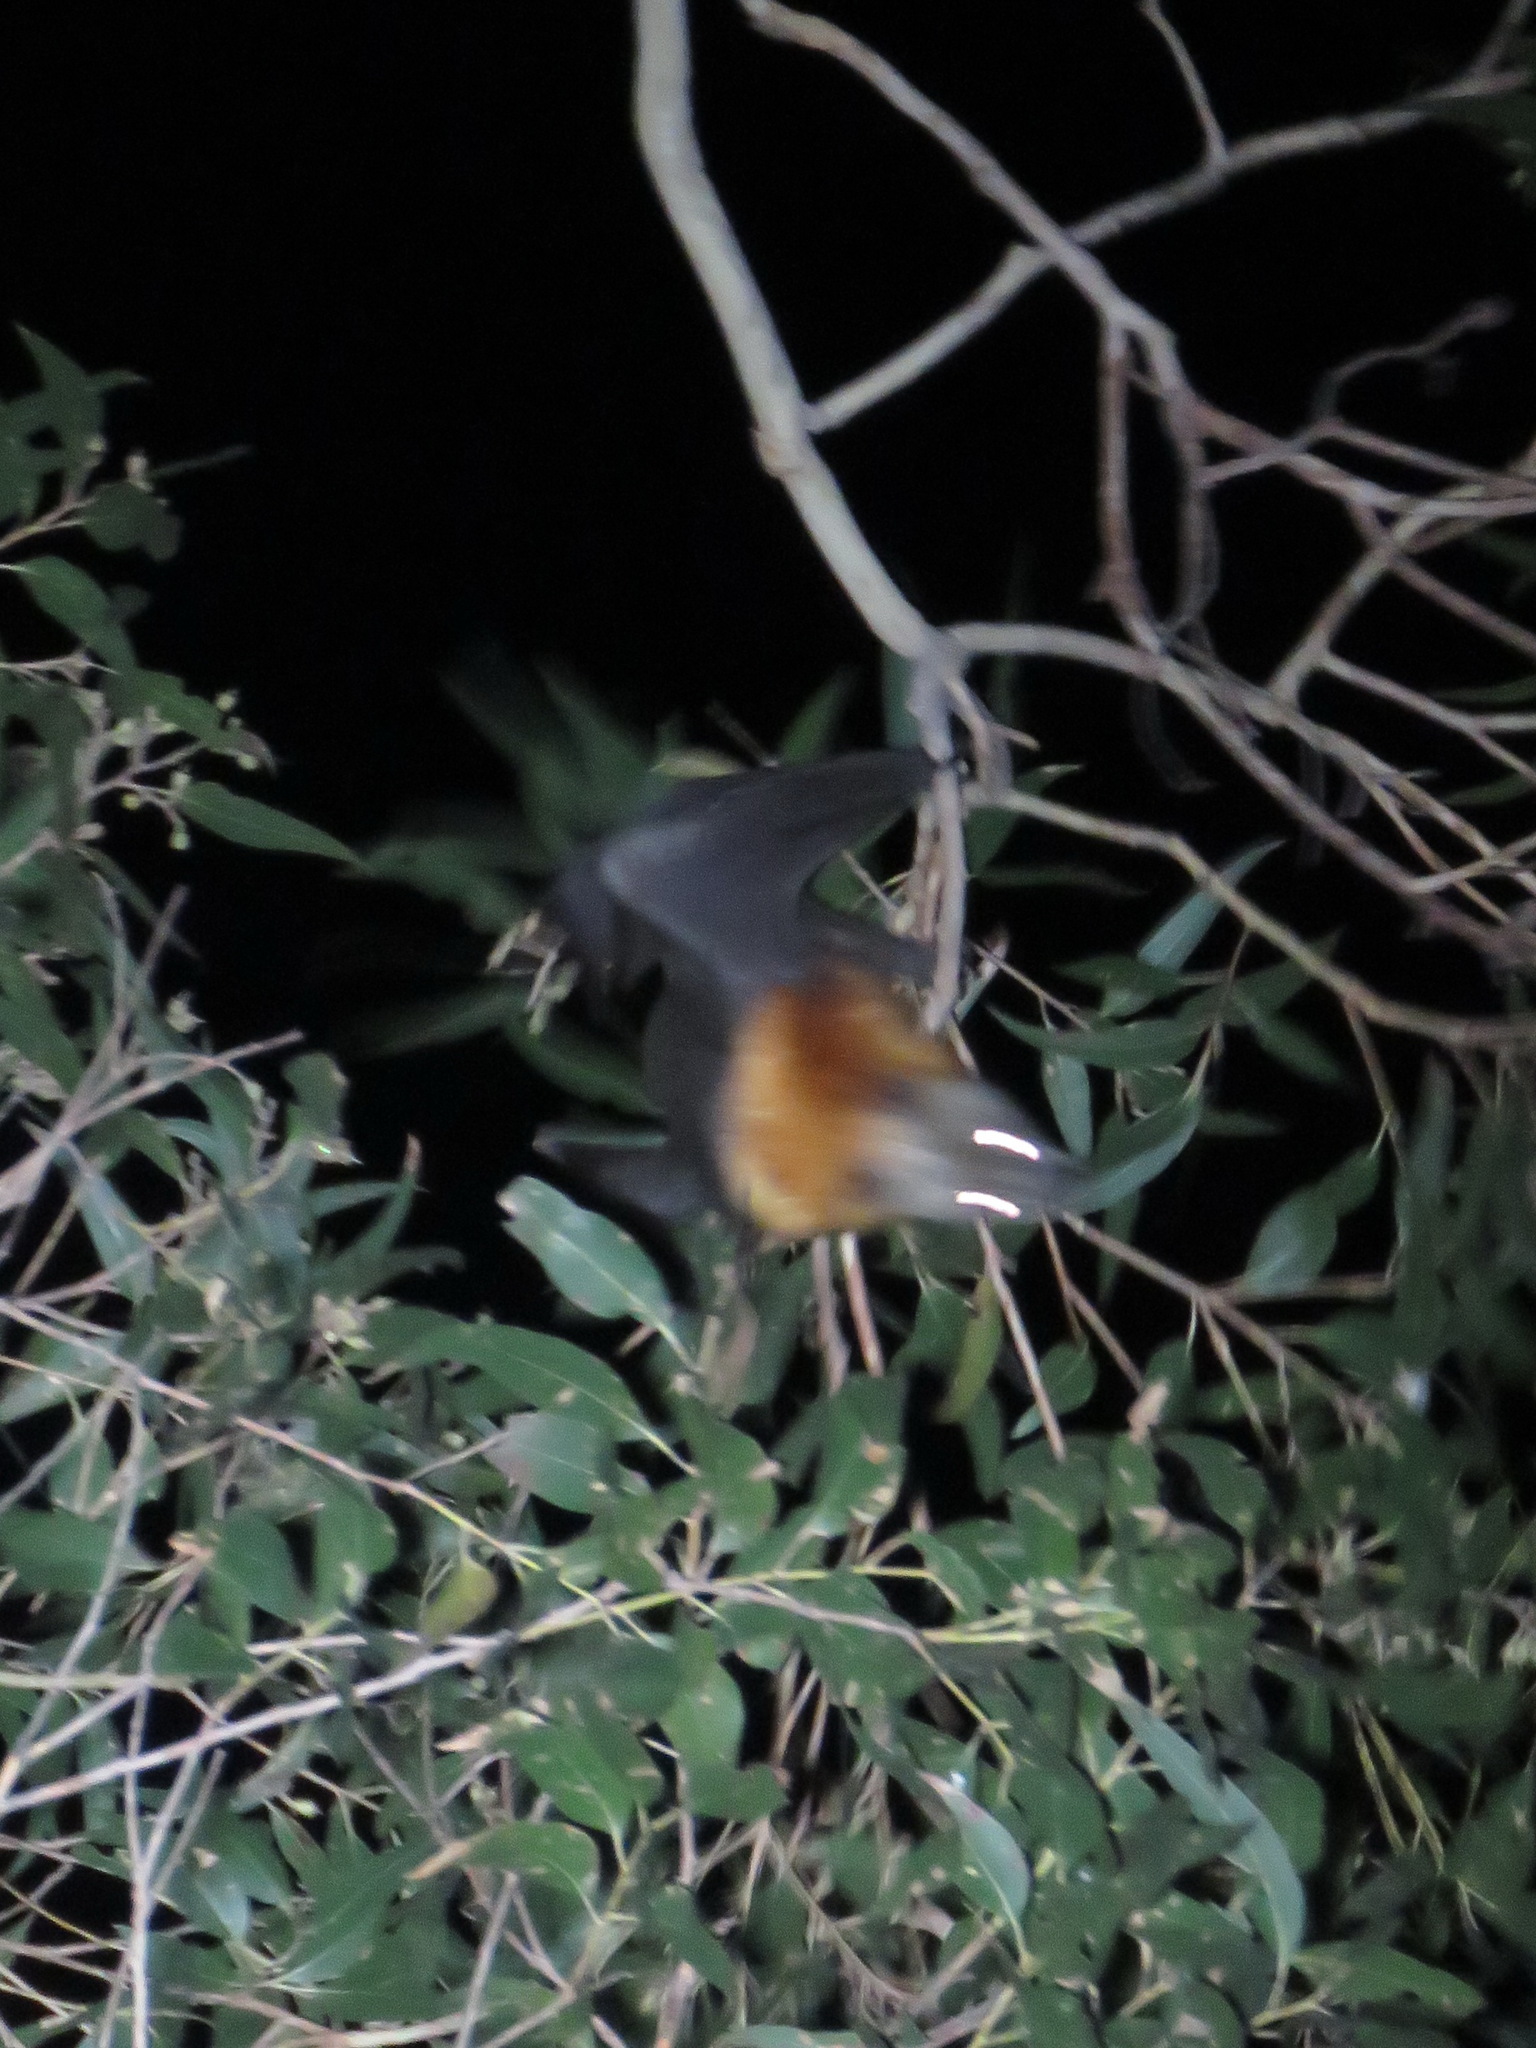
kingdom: Animalia
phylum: Chordata
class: Mammalia
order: Chiroptera
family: Pteropodidae
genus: Pteropus
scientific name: Pteropus poliocephalus
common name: Gray-headed flying fox
